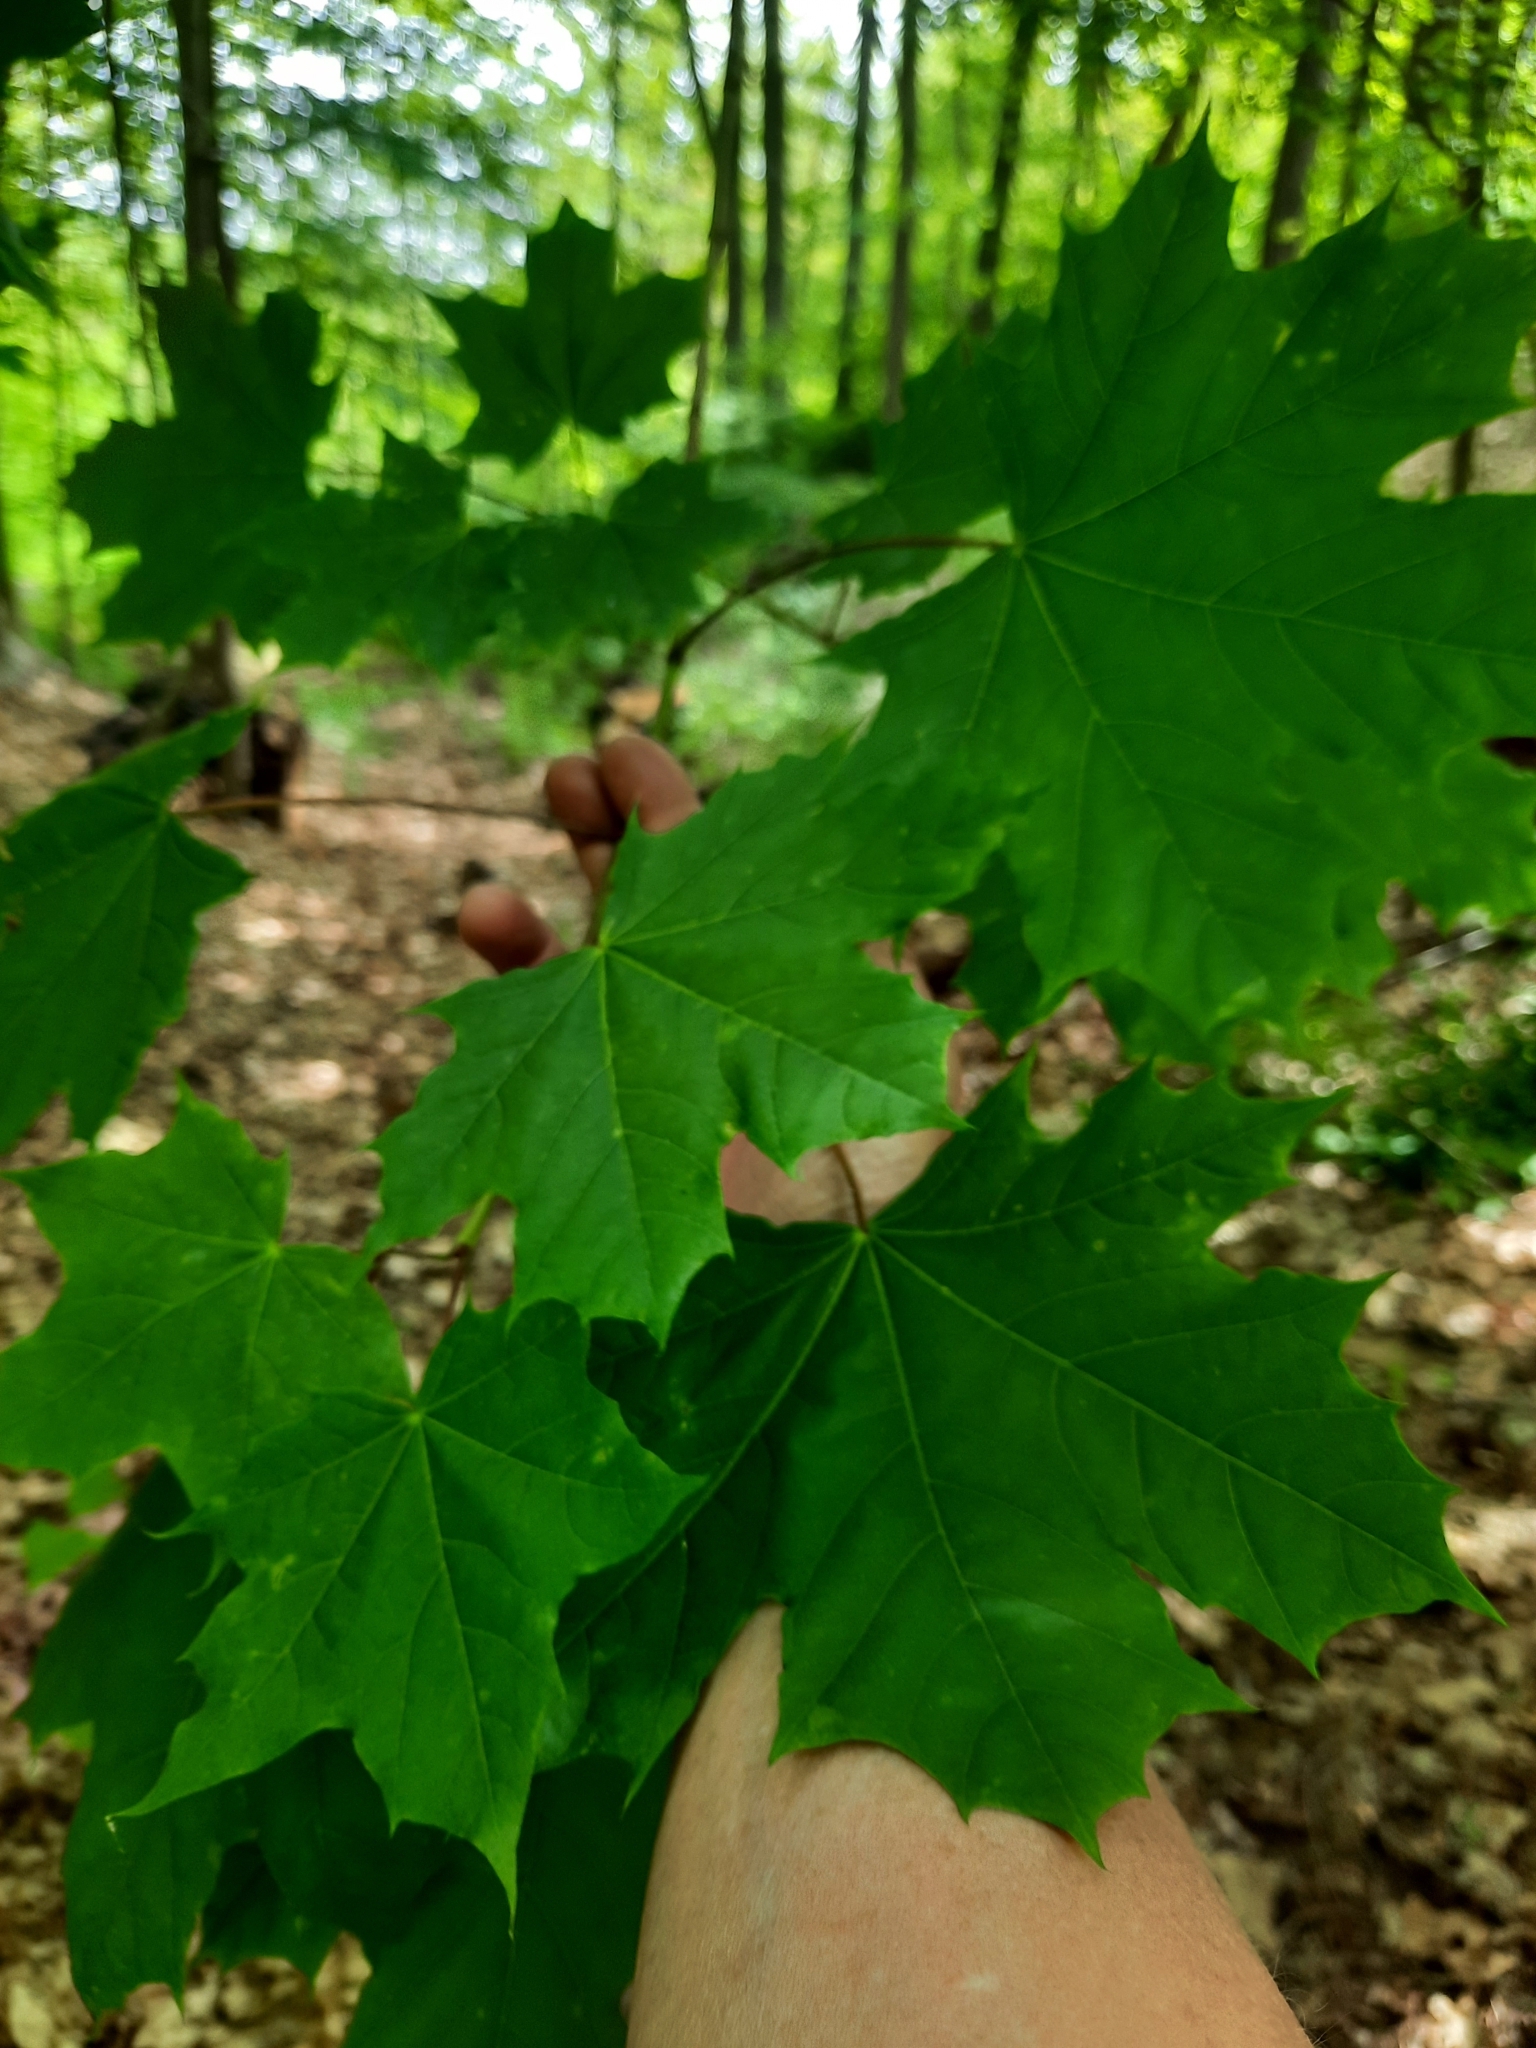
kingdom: Plantae
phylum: Tracheophyta
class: Magnoliopsida
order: Sapindales
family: Sapindaceae
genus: Acer
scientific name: Acer platanoides
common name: Norway maple
